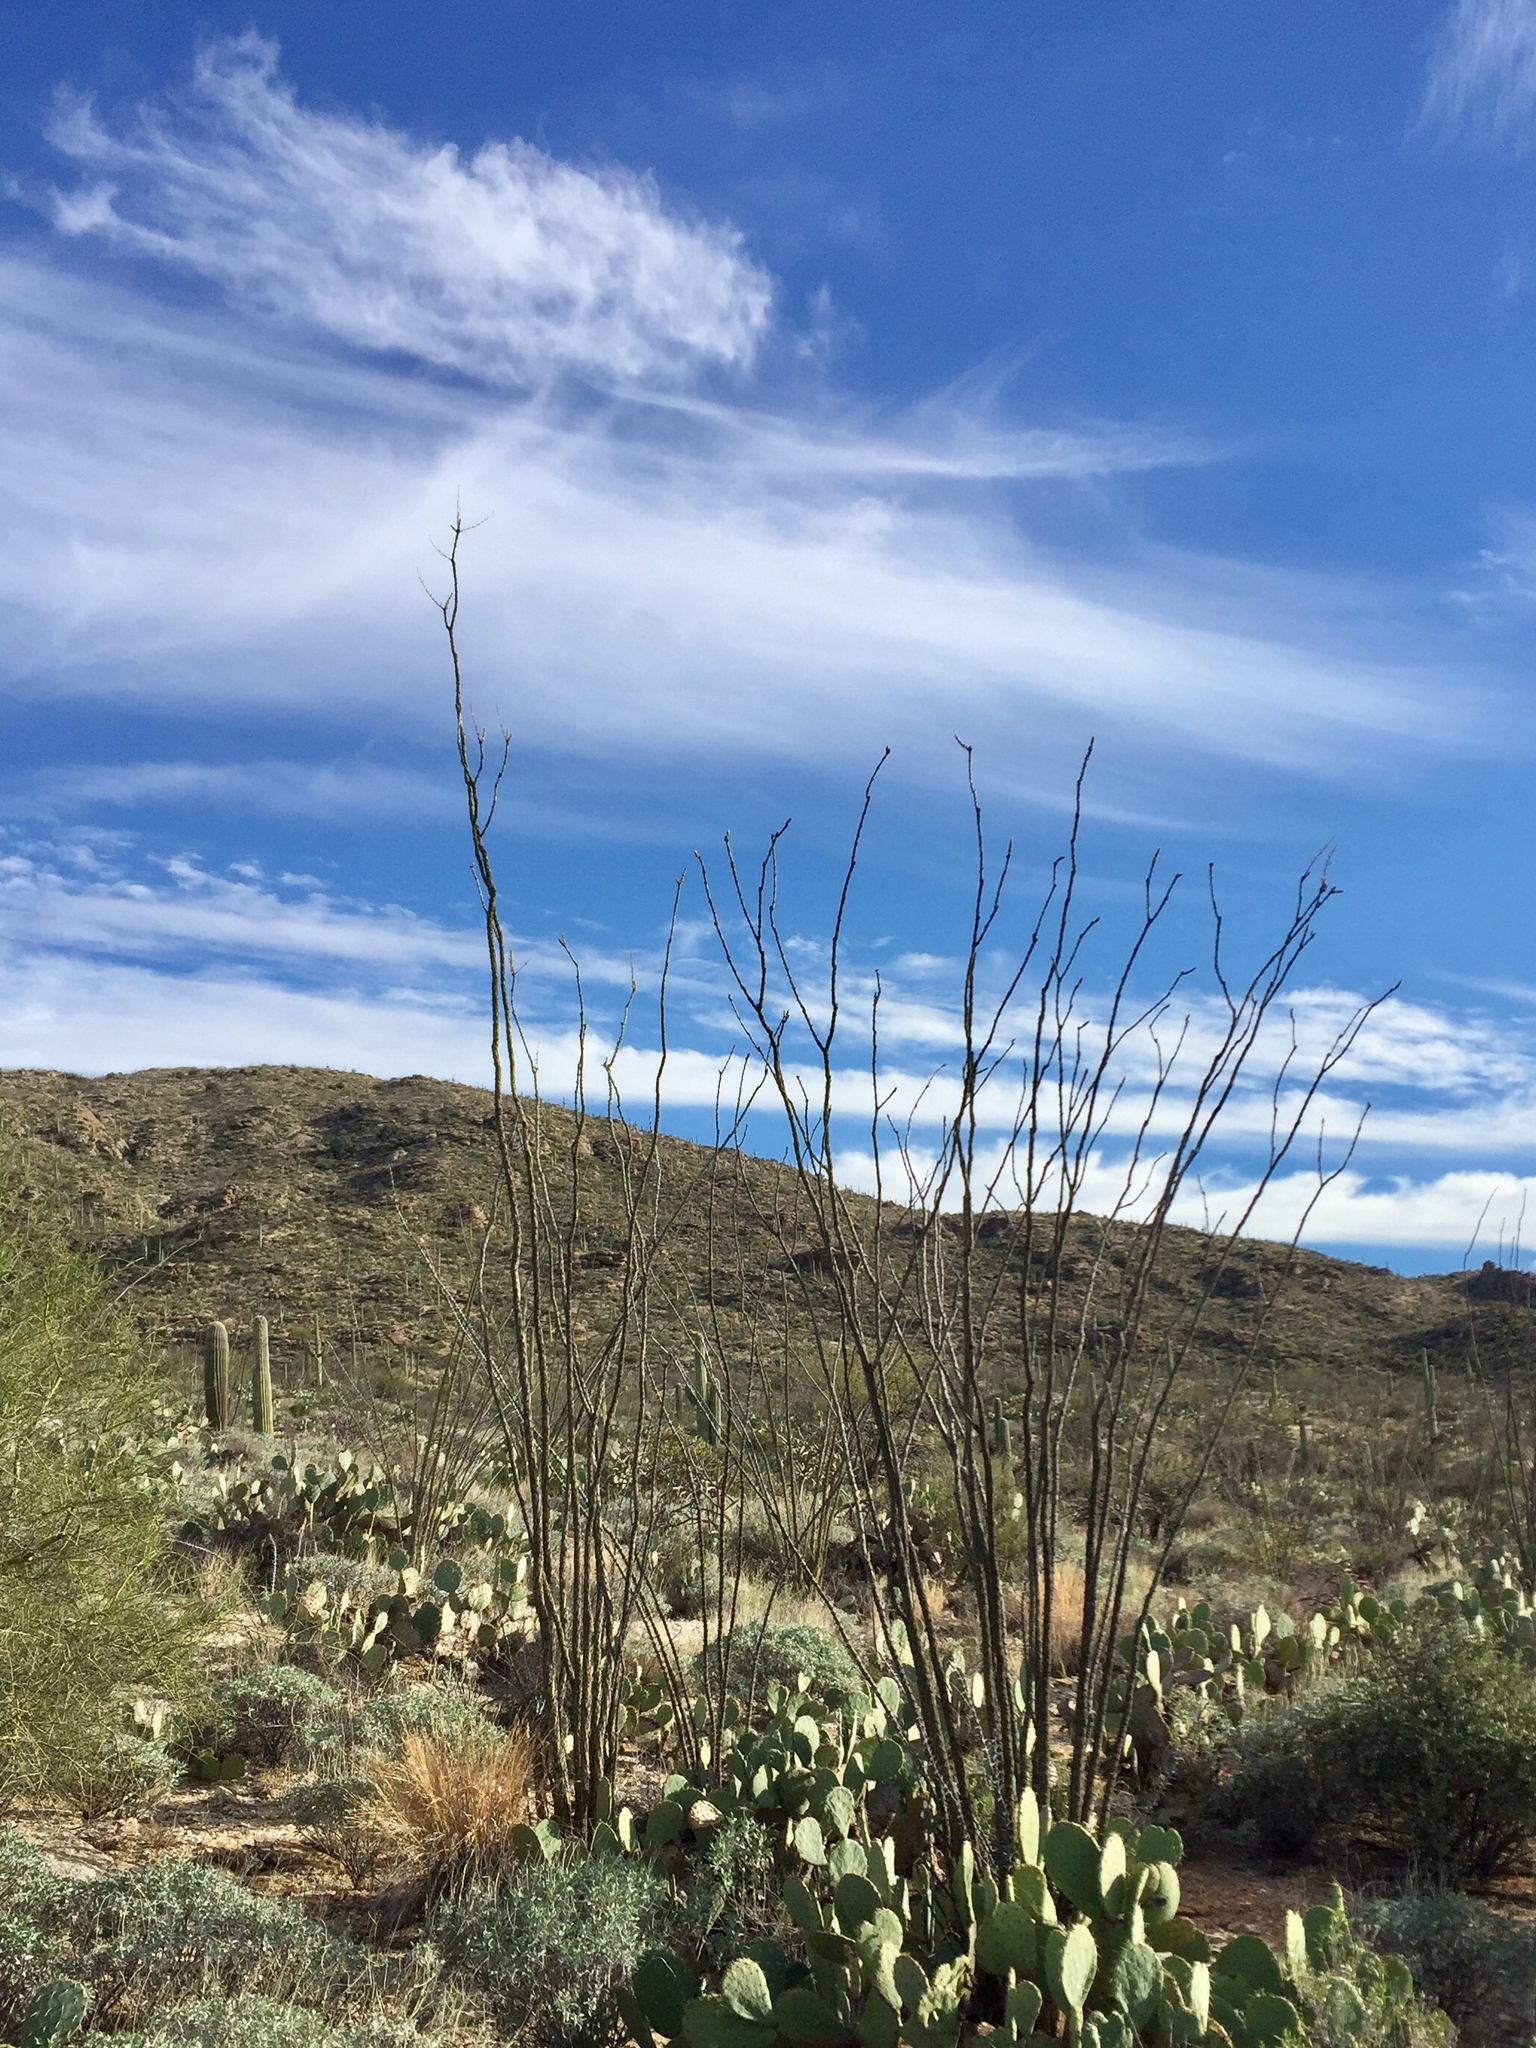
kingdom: Plantae
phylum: Tracheophyta
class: Magnoliopsida
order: Ericales
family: Fouquieriaceae
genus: Fouquieria
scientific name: Fouquieria splendens
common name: Vine-cactus
